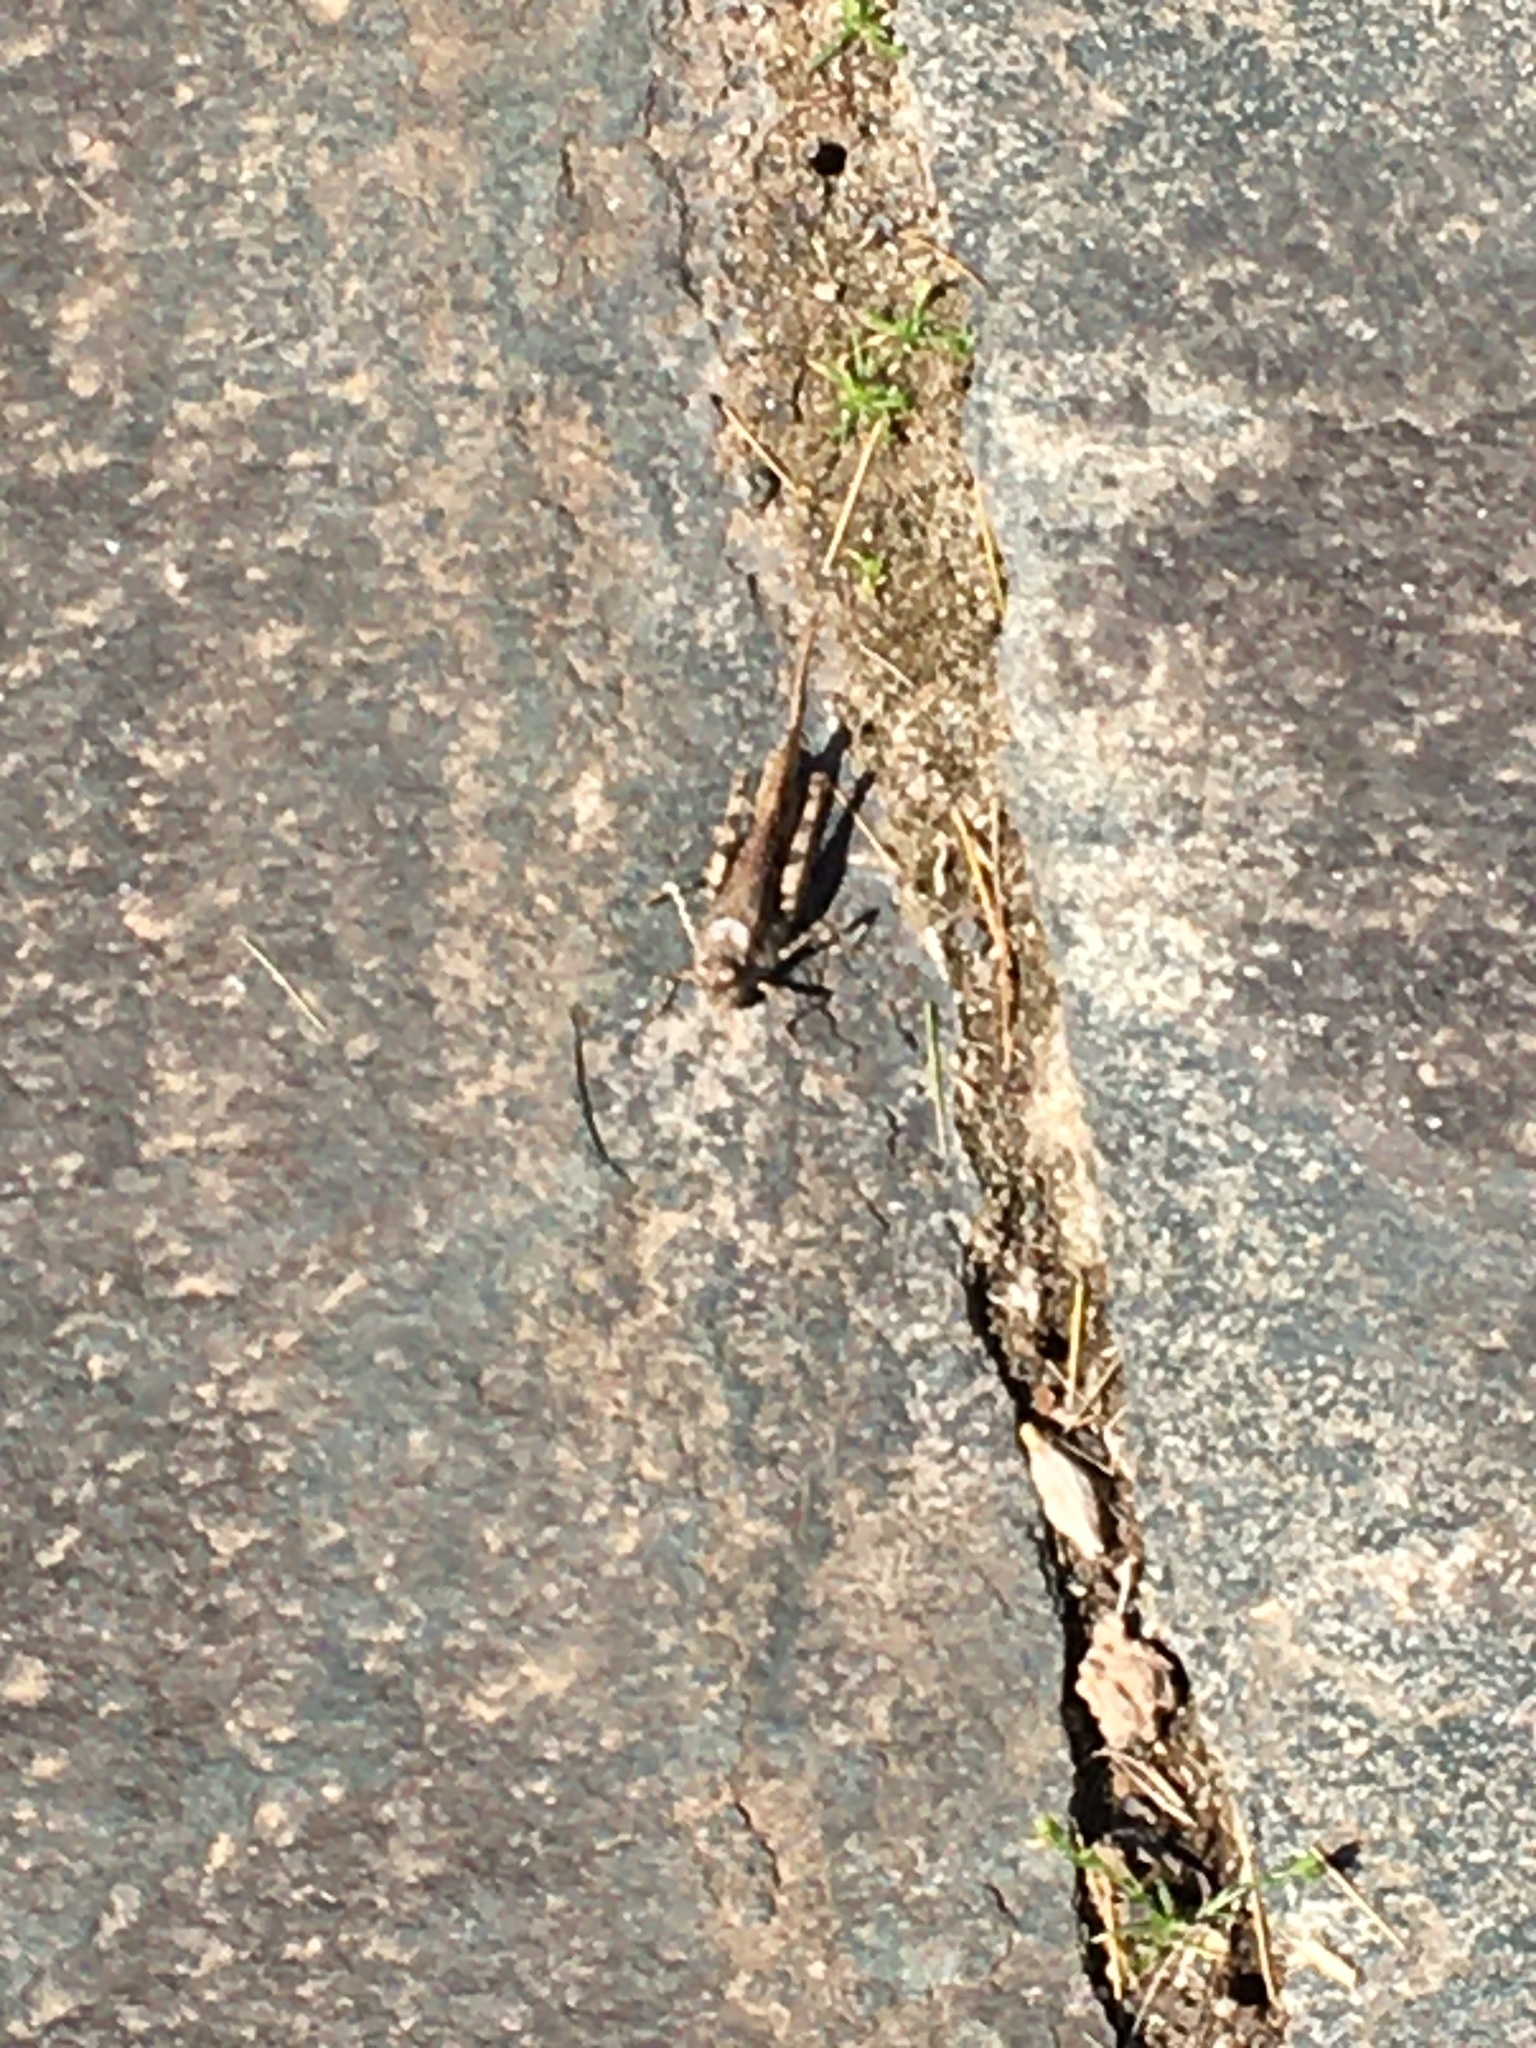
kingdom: Animalia
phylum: Arthropoda
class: Insecta
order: Orthoptera
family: Acrididae
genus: Acrotylus
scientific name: Acrotylus insubricus
